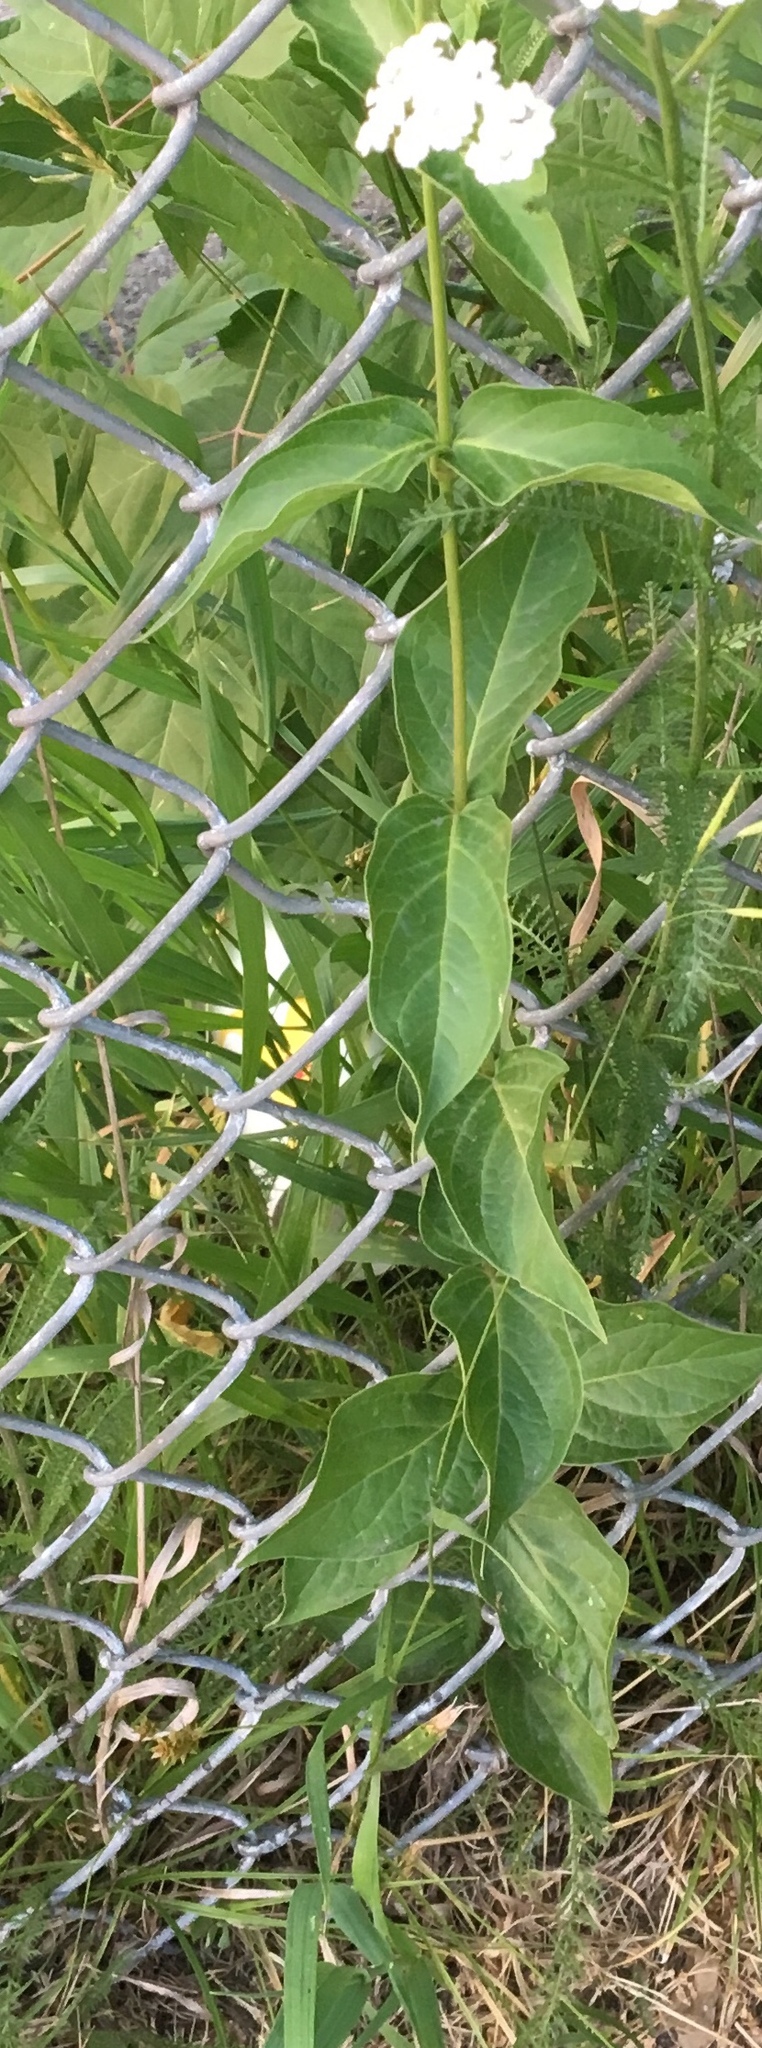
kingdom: Plantae
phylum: Tracheophyta
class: Magnoliopsida
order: Gentianales
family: Apocynaceae
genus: Vincetoxicum
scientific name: Vincetoxicum rossicum
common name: Dog-strangling vine
